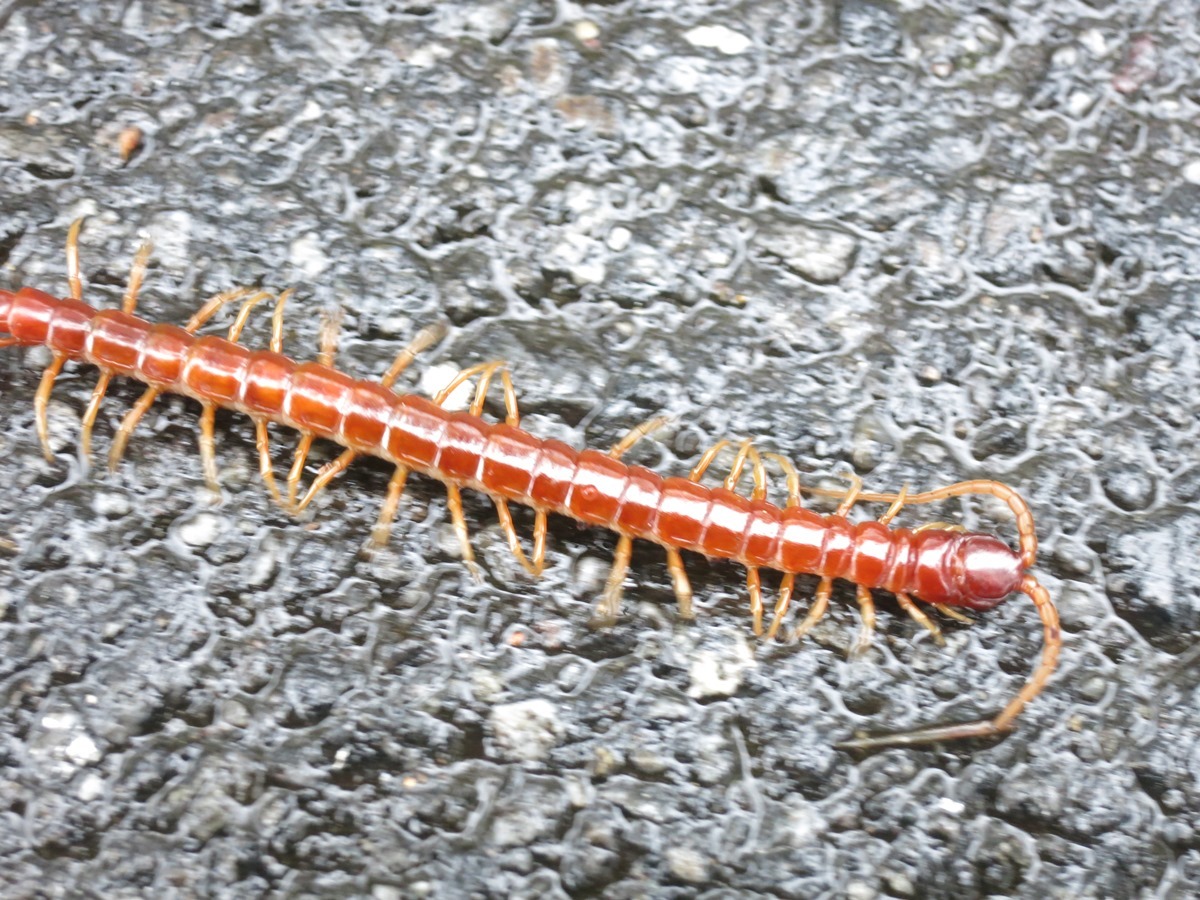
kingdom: Animalia
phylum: Arthropoda
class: Chilopoda
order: Scolopendromorpha
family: Scolopocryptopidae
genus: Scolopocryptops
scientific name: Scolopocryptops sexspinosus
